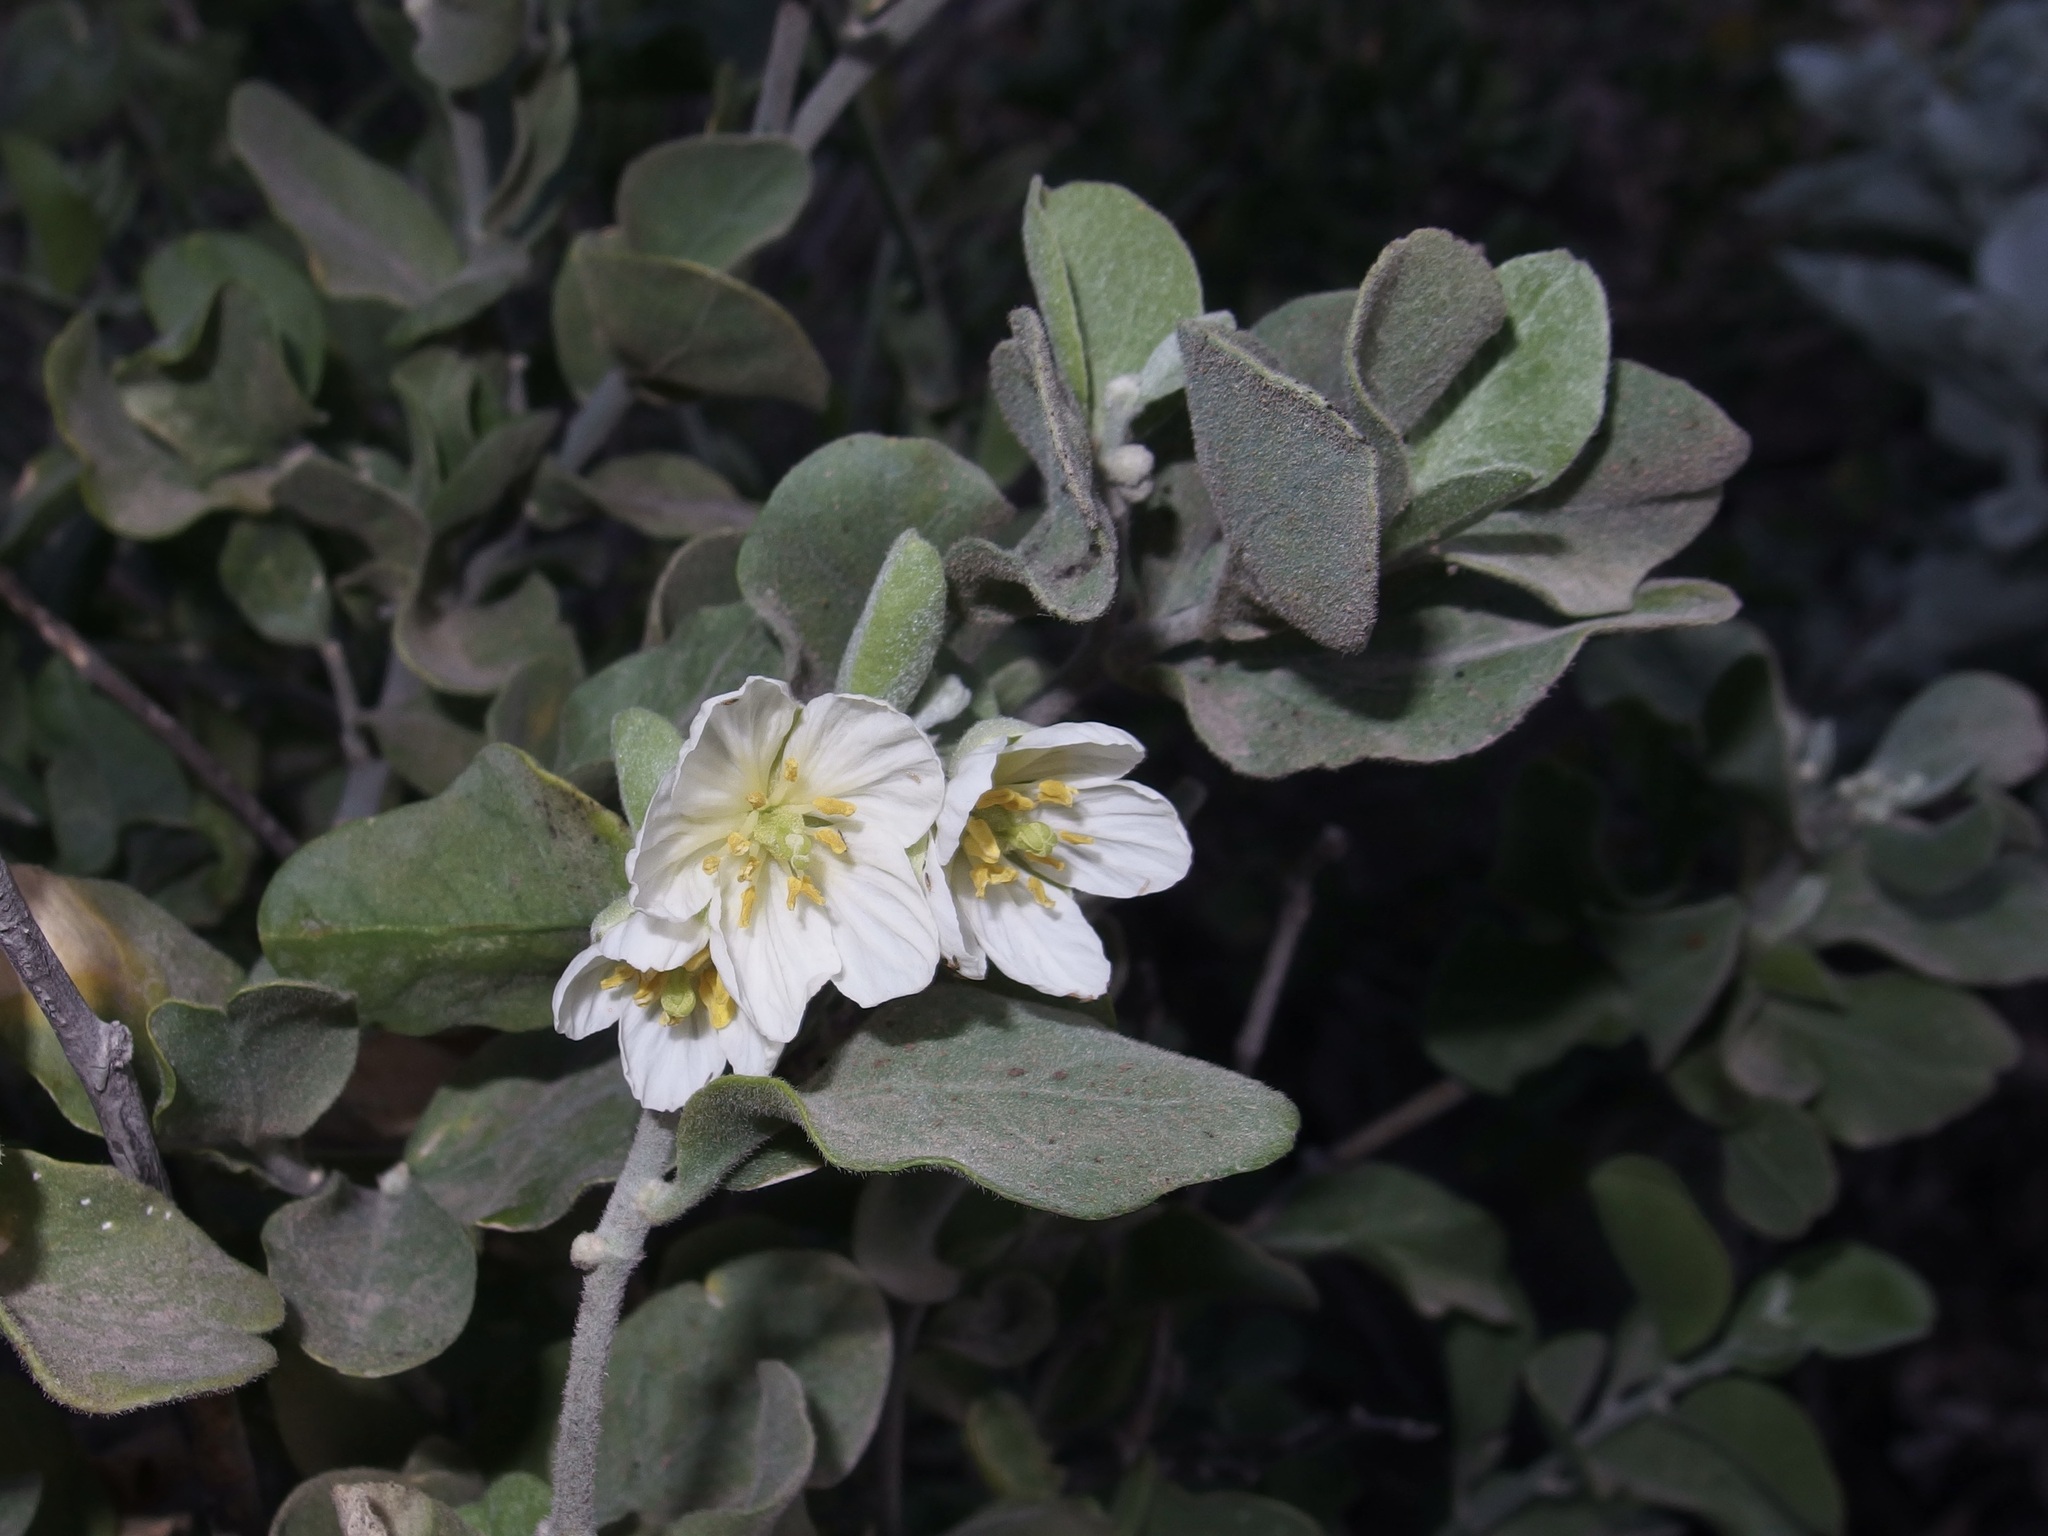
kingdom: Plantae
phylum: Tracheophyta
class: Magnoliopsida
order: Zygophyllales
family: Zygophyllaceae
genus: Viscainoa
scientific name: Viscainoa geniculata
